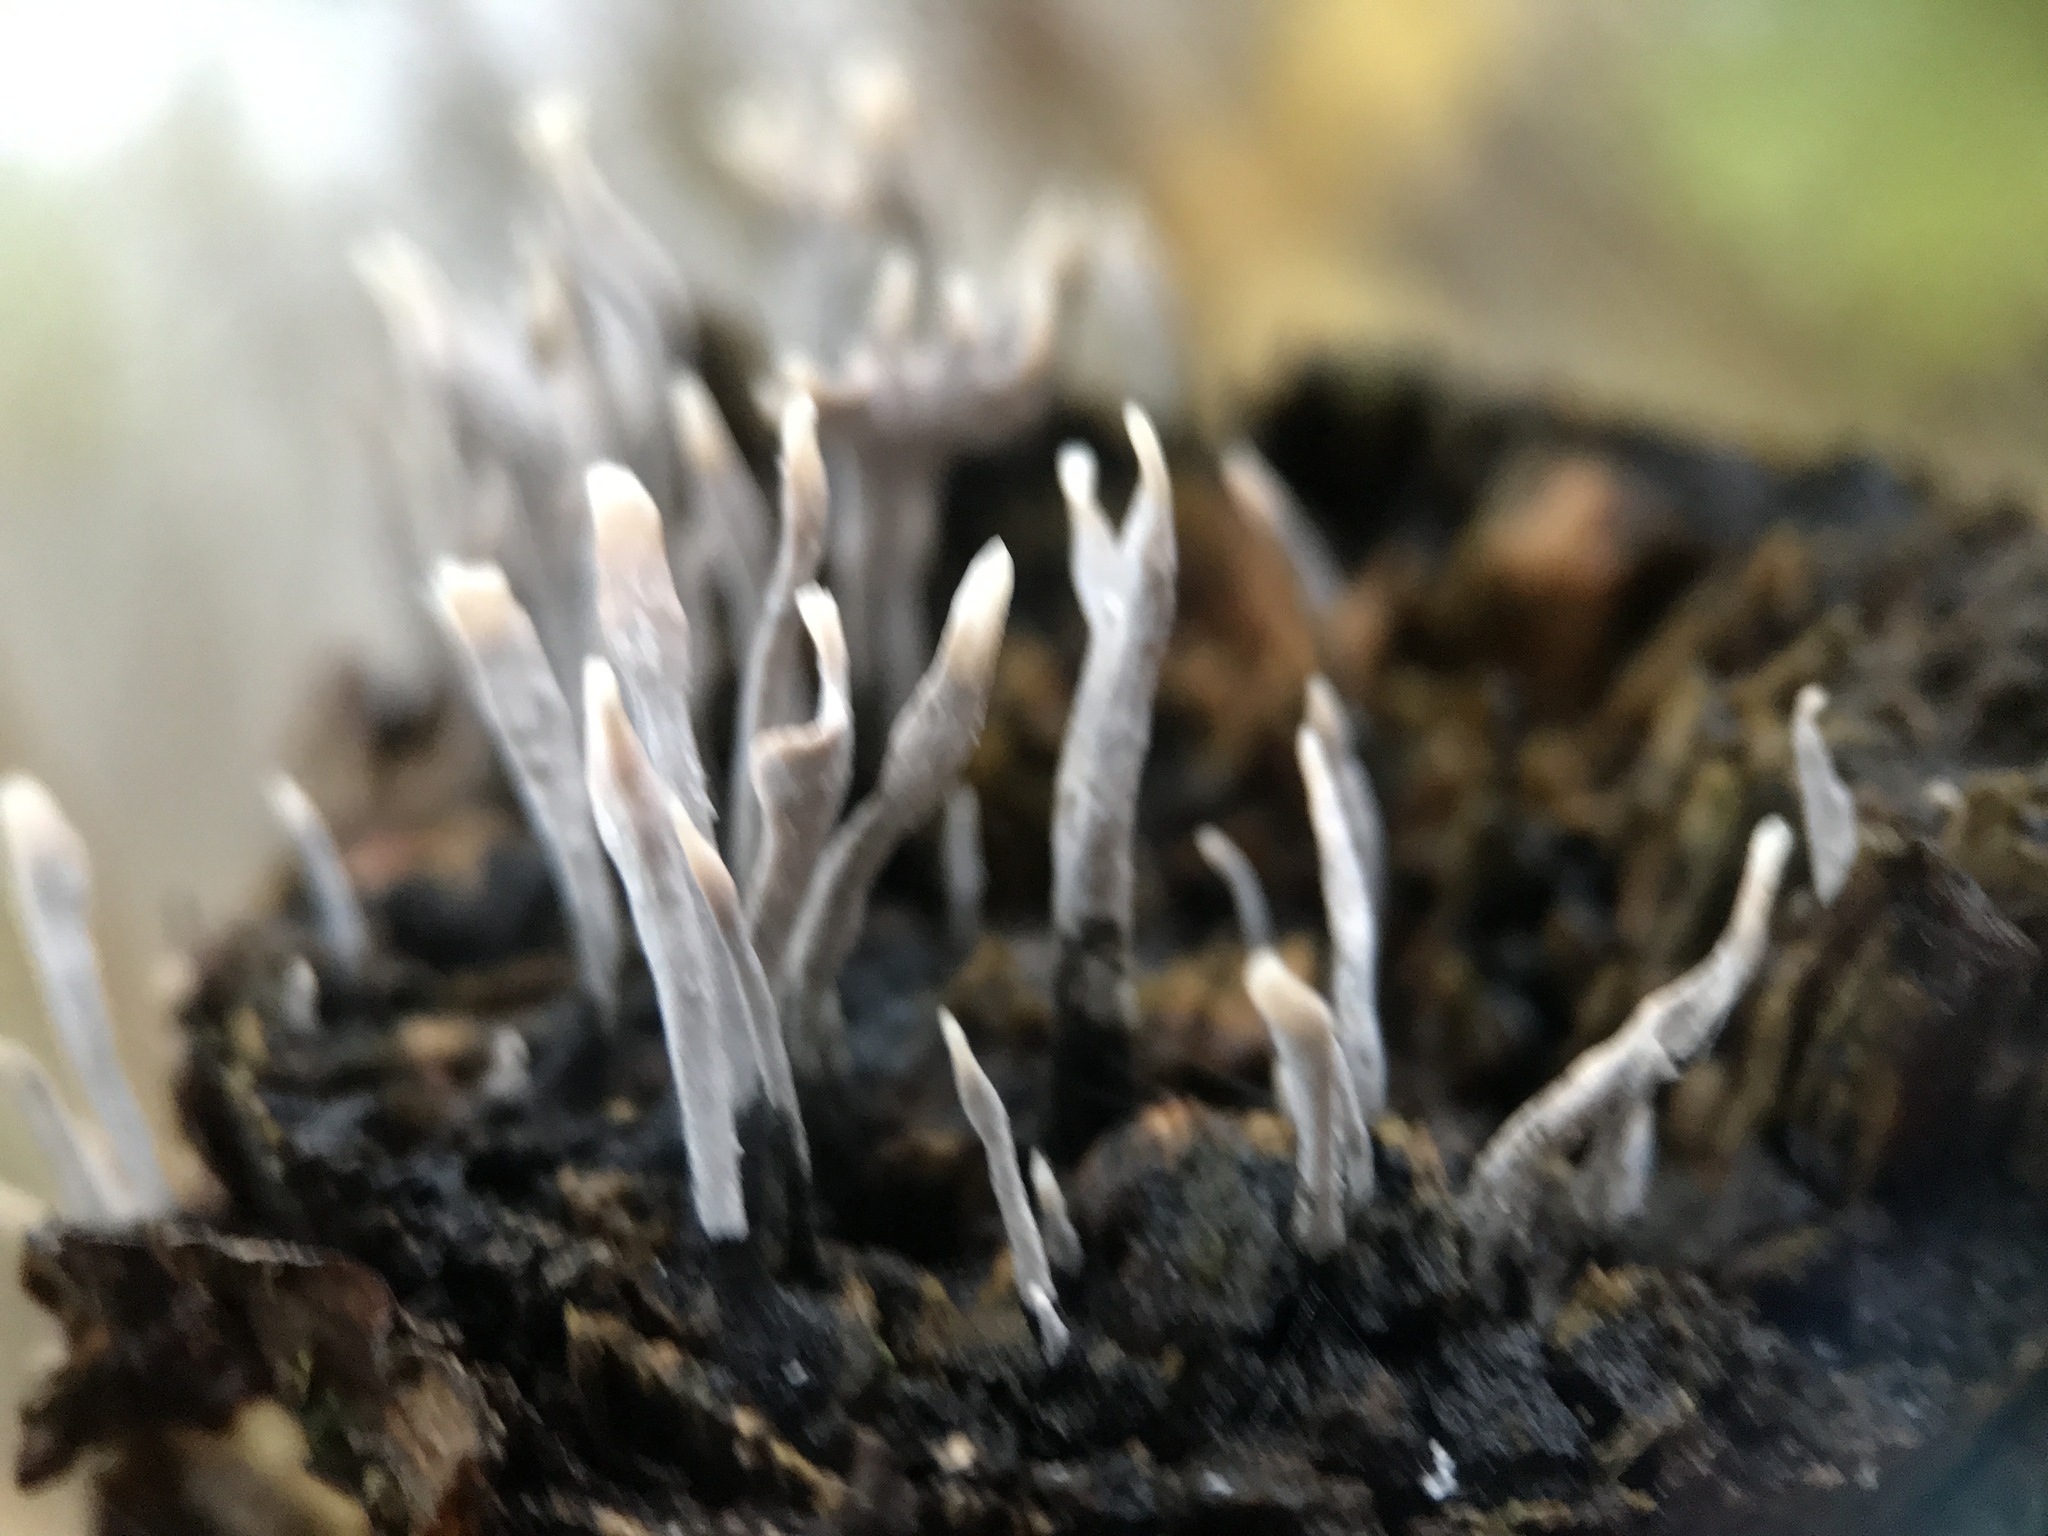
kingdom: Fungi
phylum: Ascomycota
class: Sordariomycetes
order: Xylariales
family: Xylariaceae
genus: Xylaria
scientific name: Xylaria hypoxylon
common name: Candle-snuff fungus
